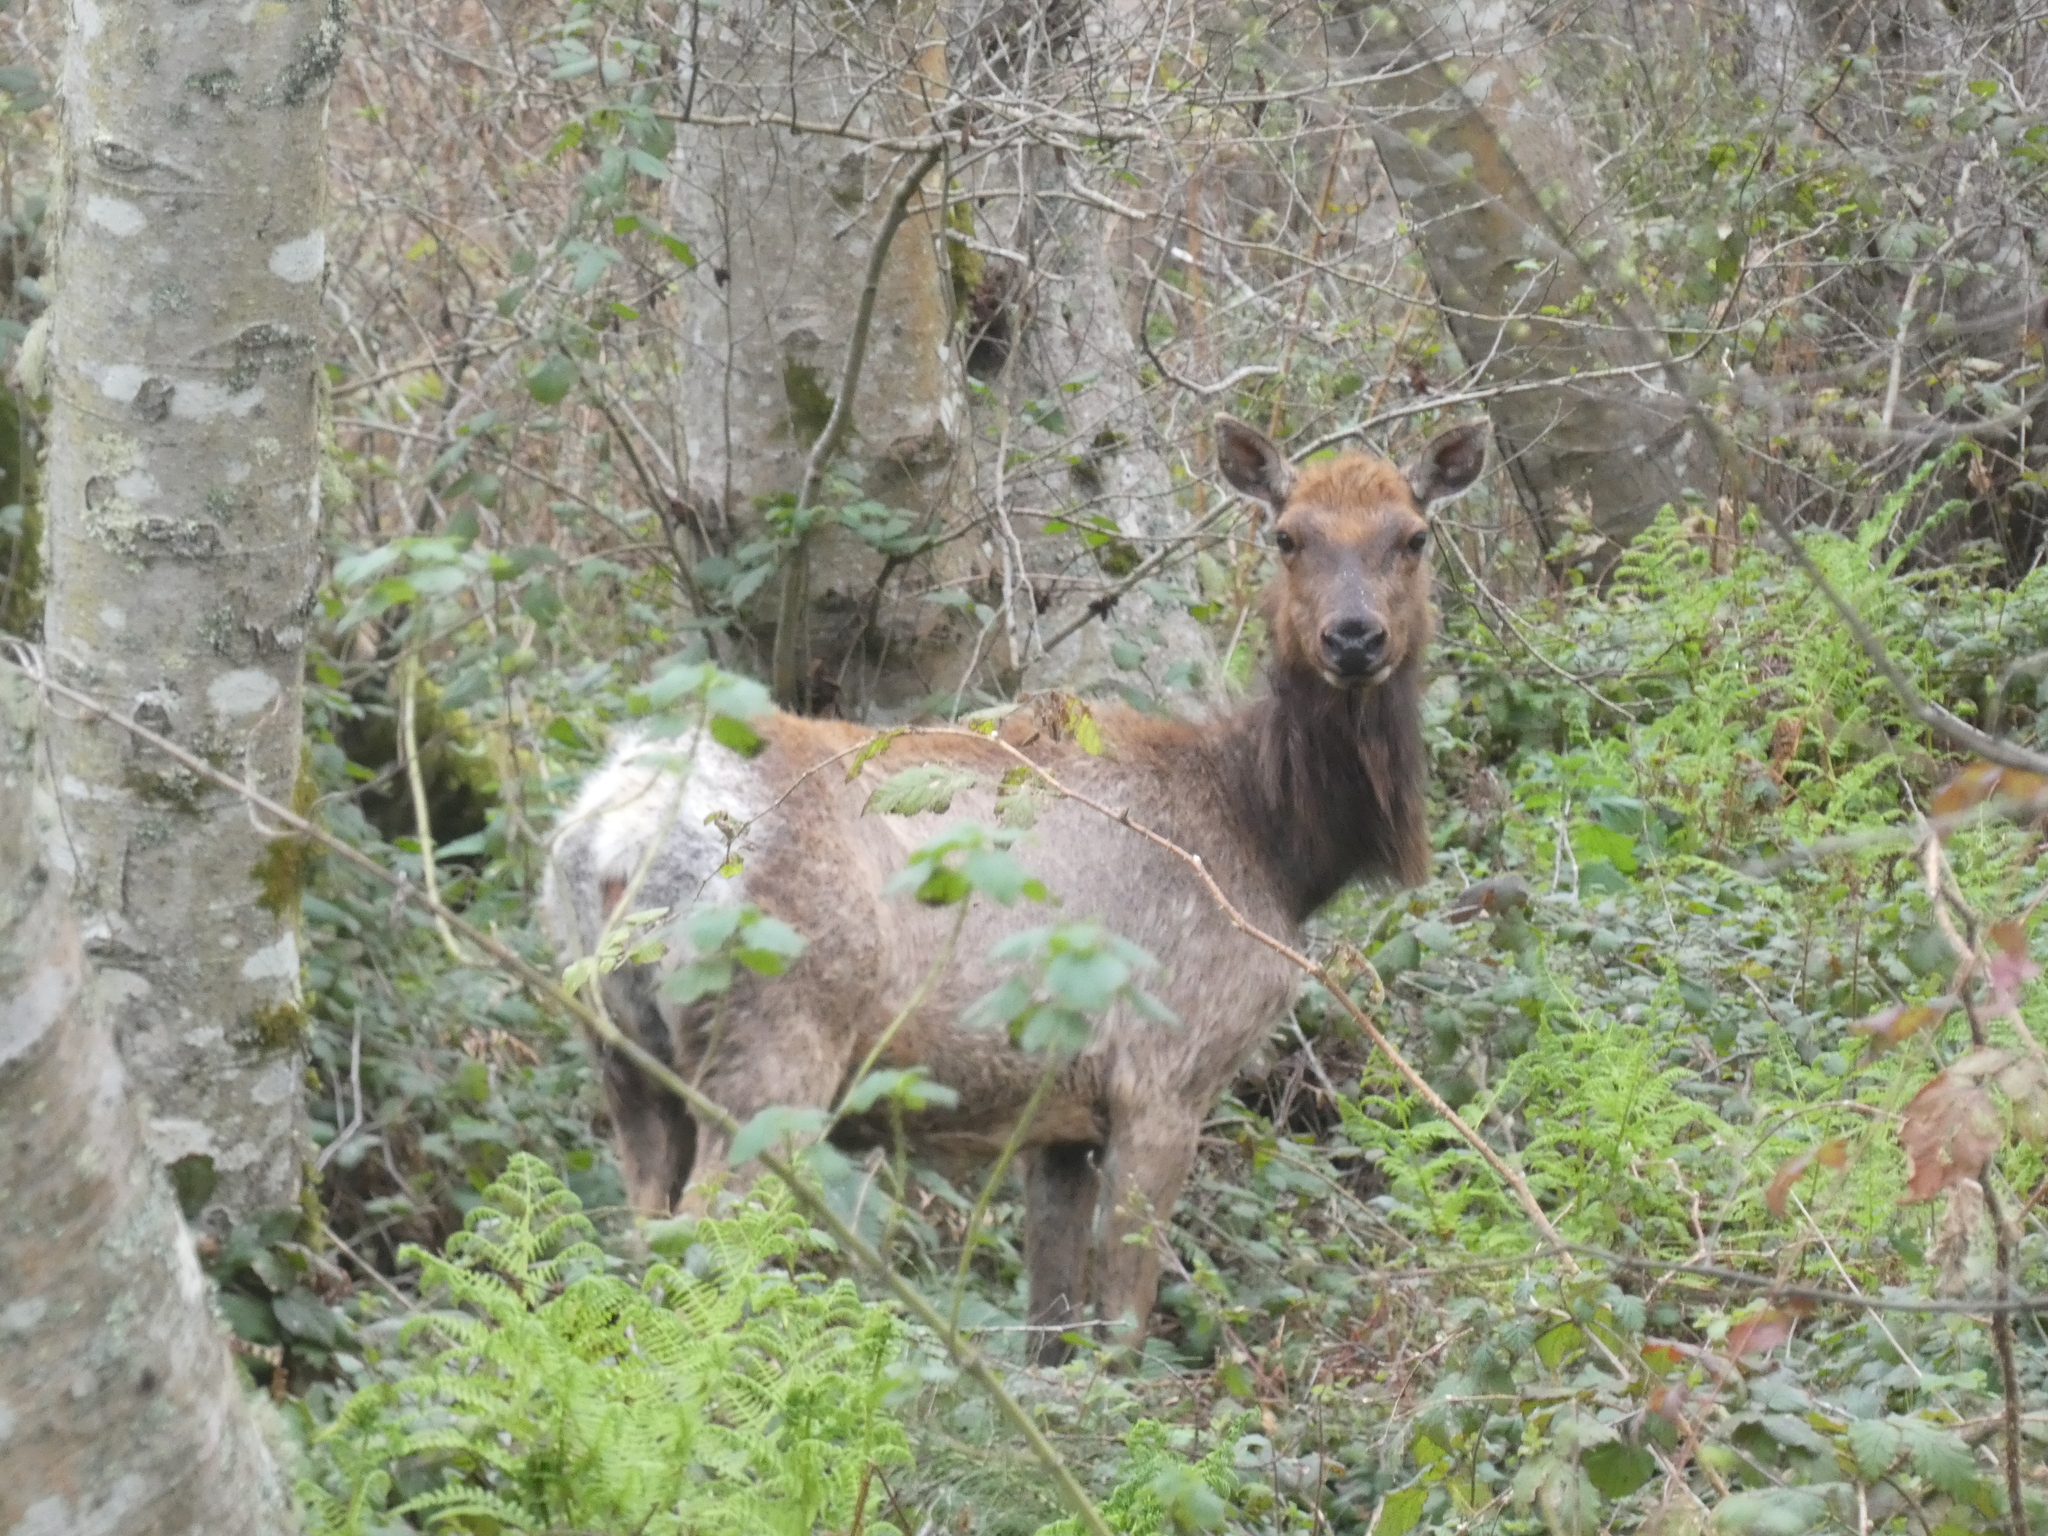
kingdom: Animalia
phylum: Chordata
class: Mammalia
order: Artiodactyla
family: Cervidae
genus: Cervus
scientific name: Cervus elaphus
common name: Red deer
